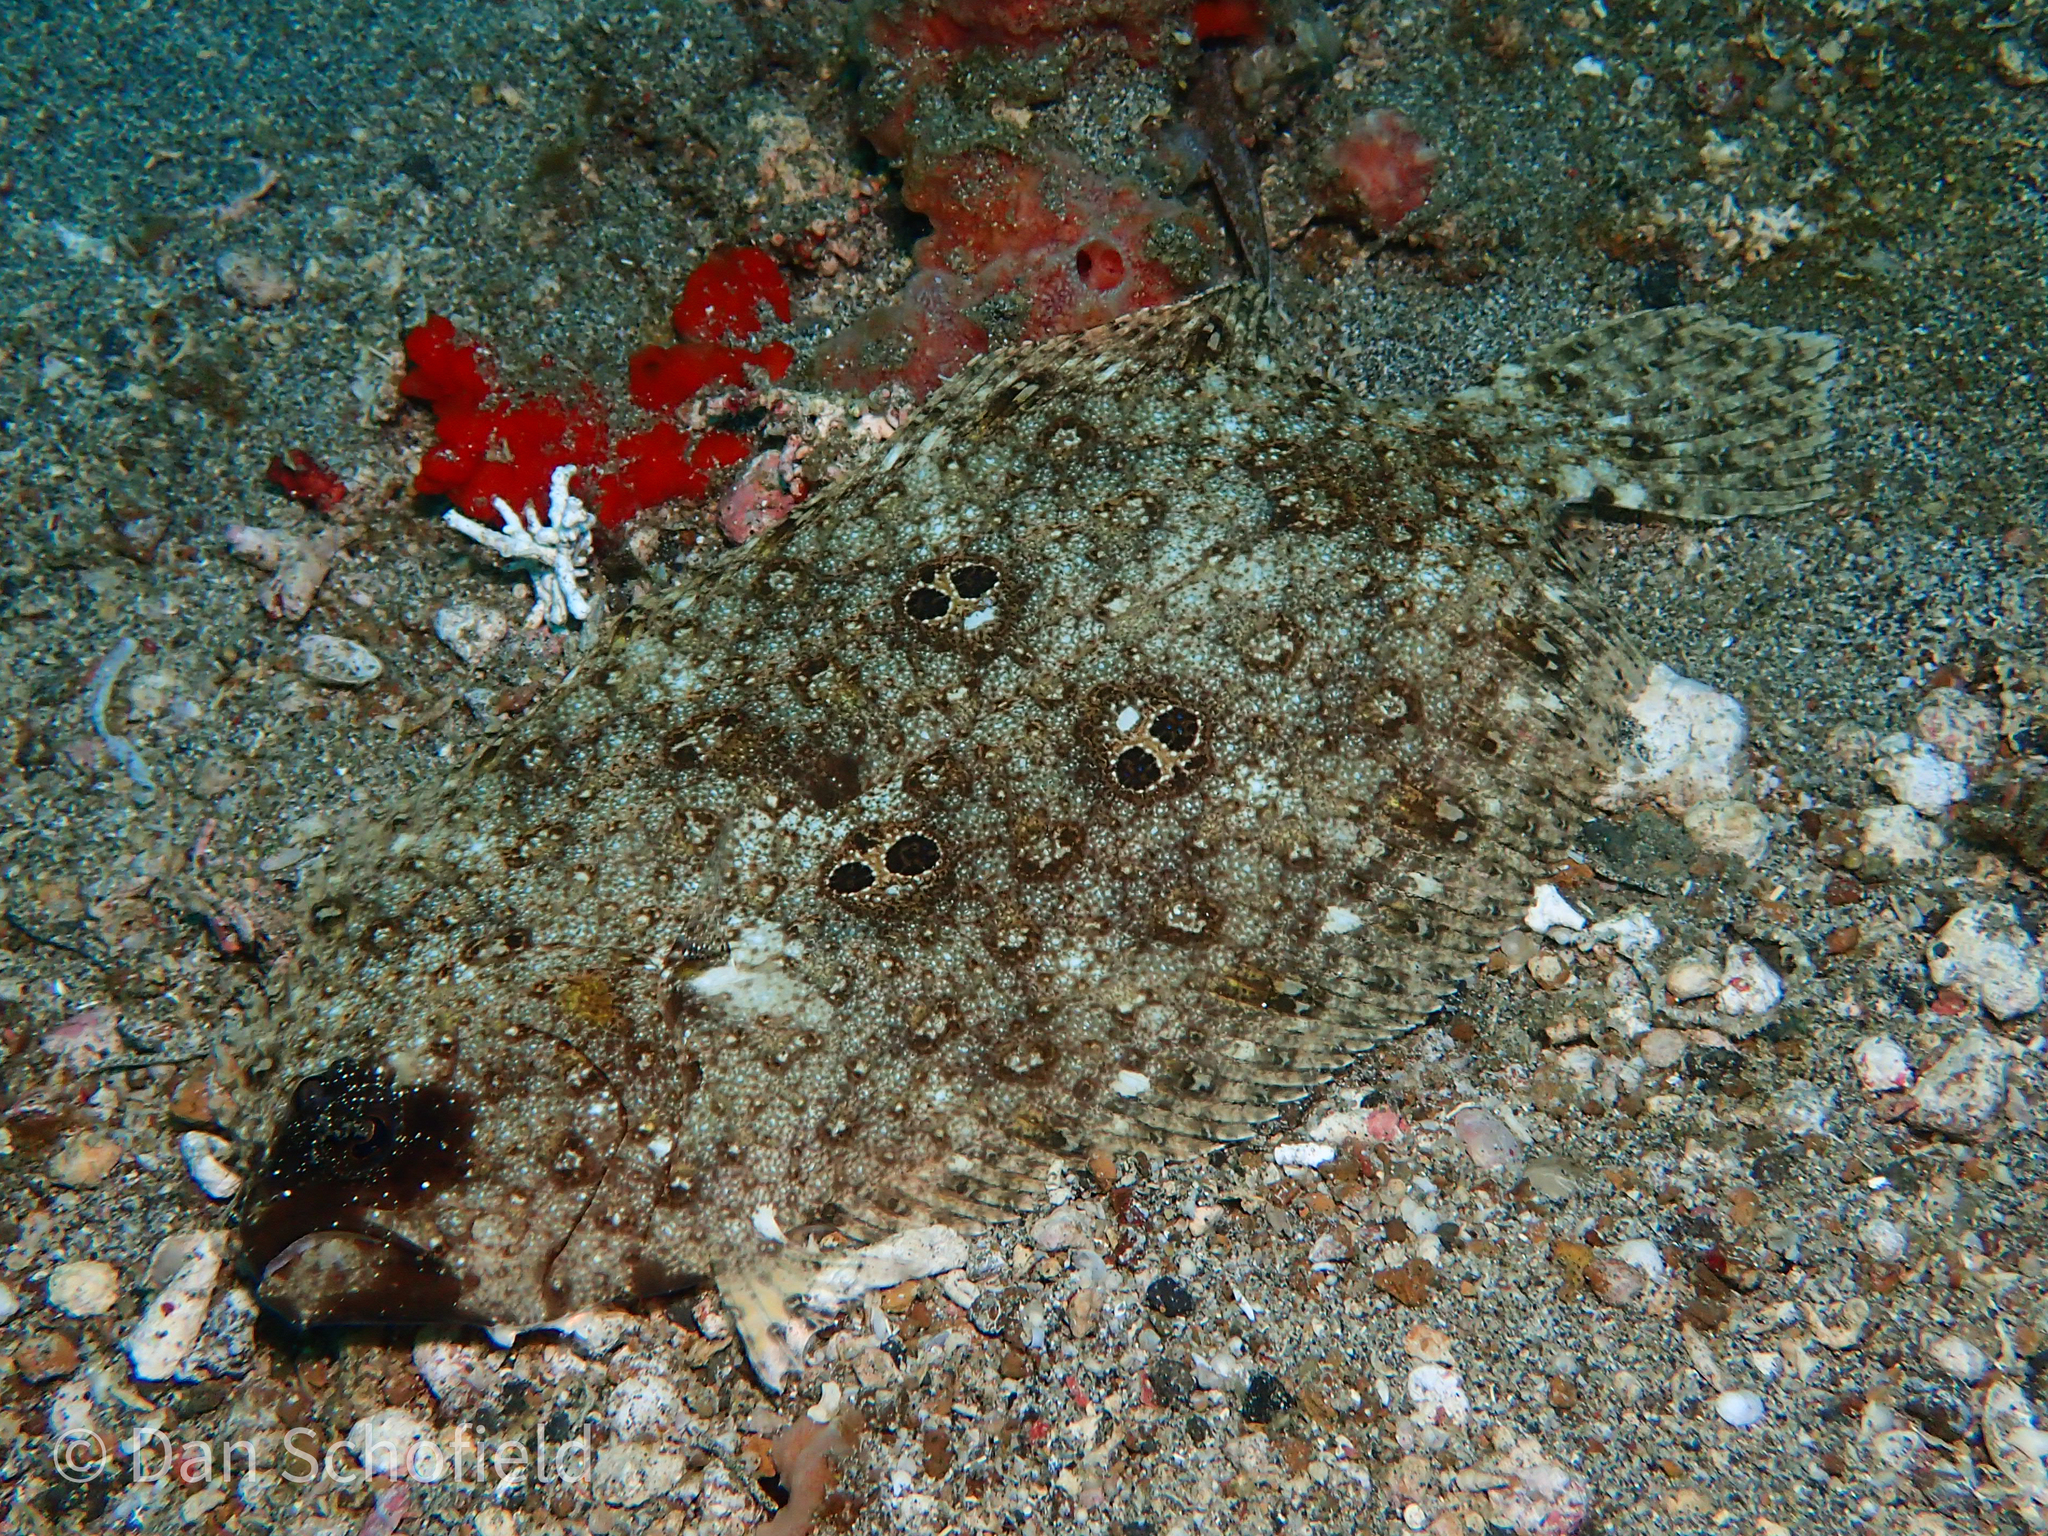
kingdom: Animalia
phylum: Chordata
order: Pleuronectiformes
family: Paralichthyidae
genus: Pseudorhombus
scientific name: Pseudorhombus dupliciocellatus
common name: Ocellated flounder
